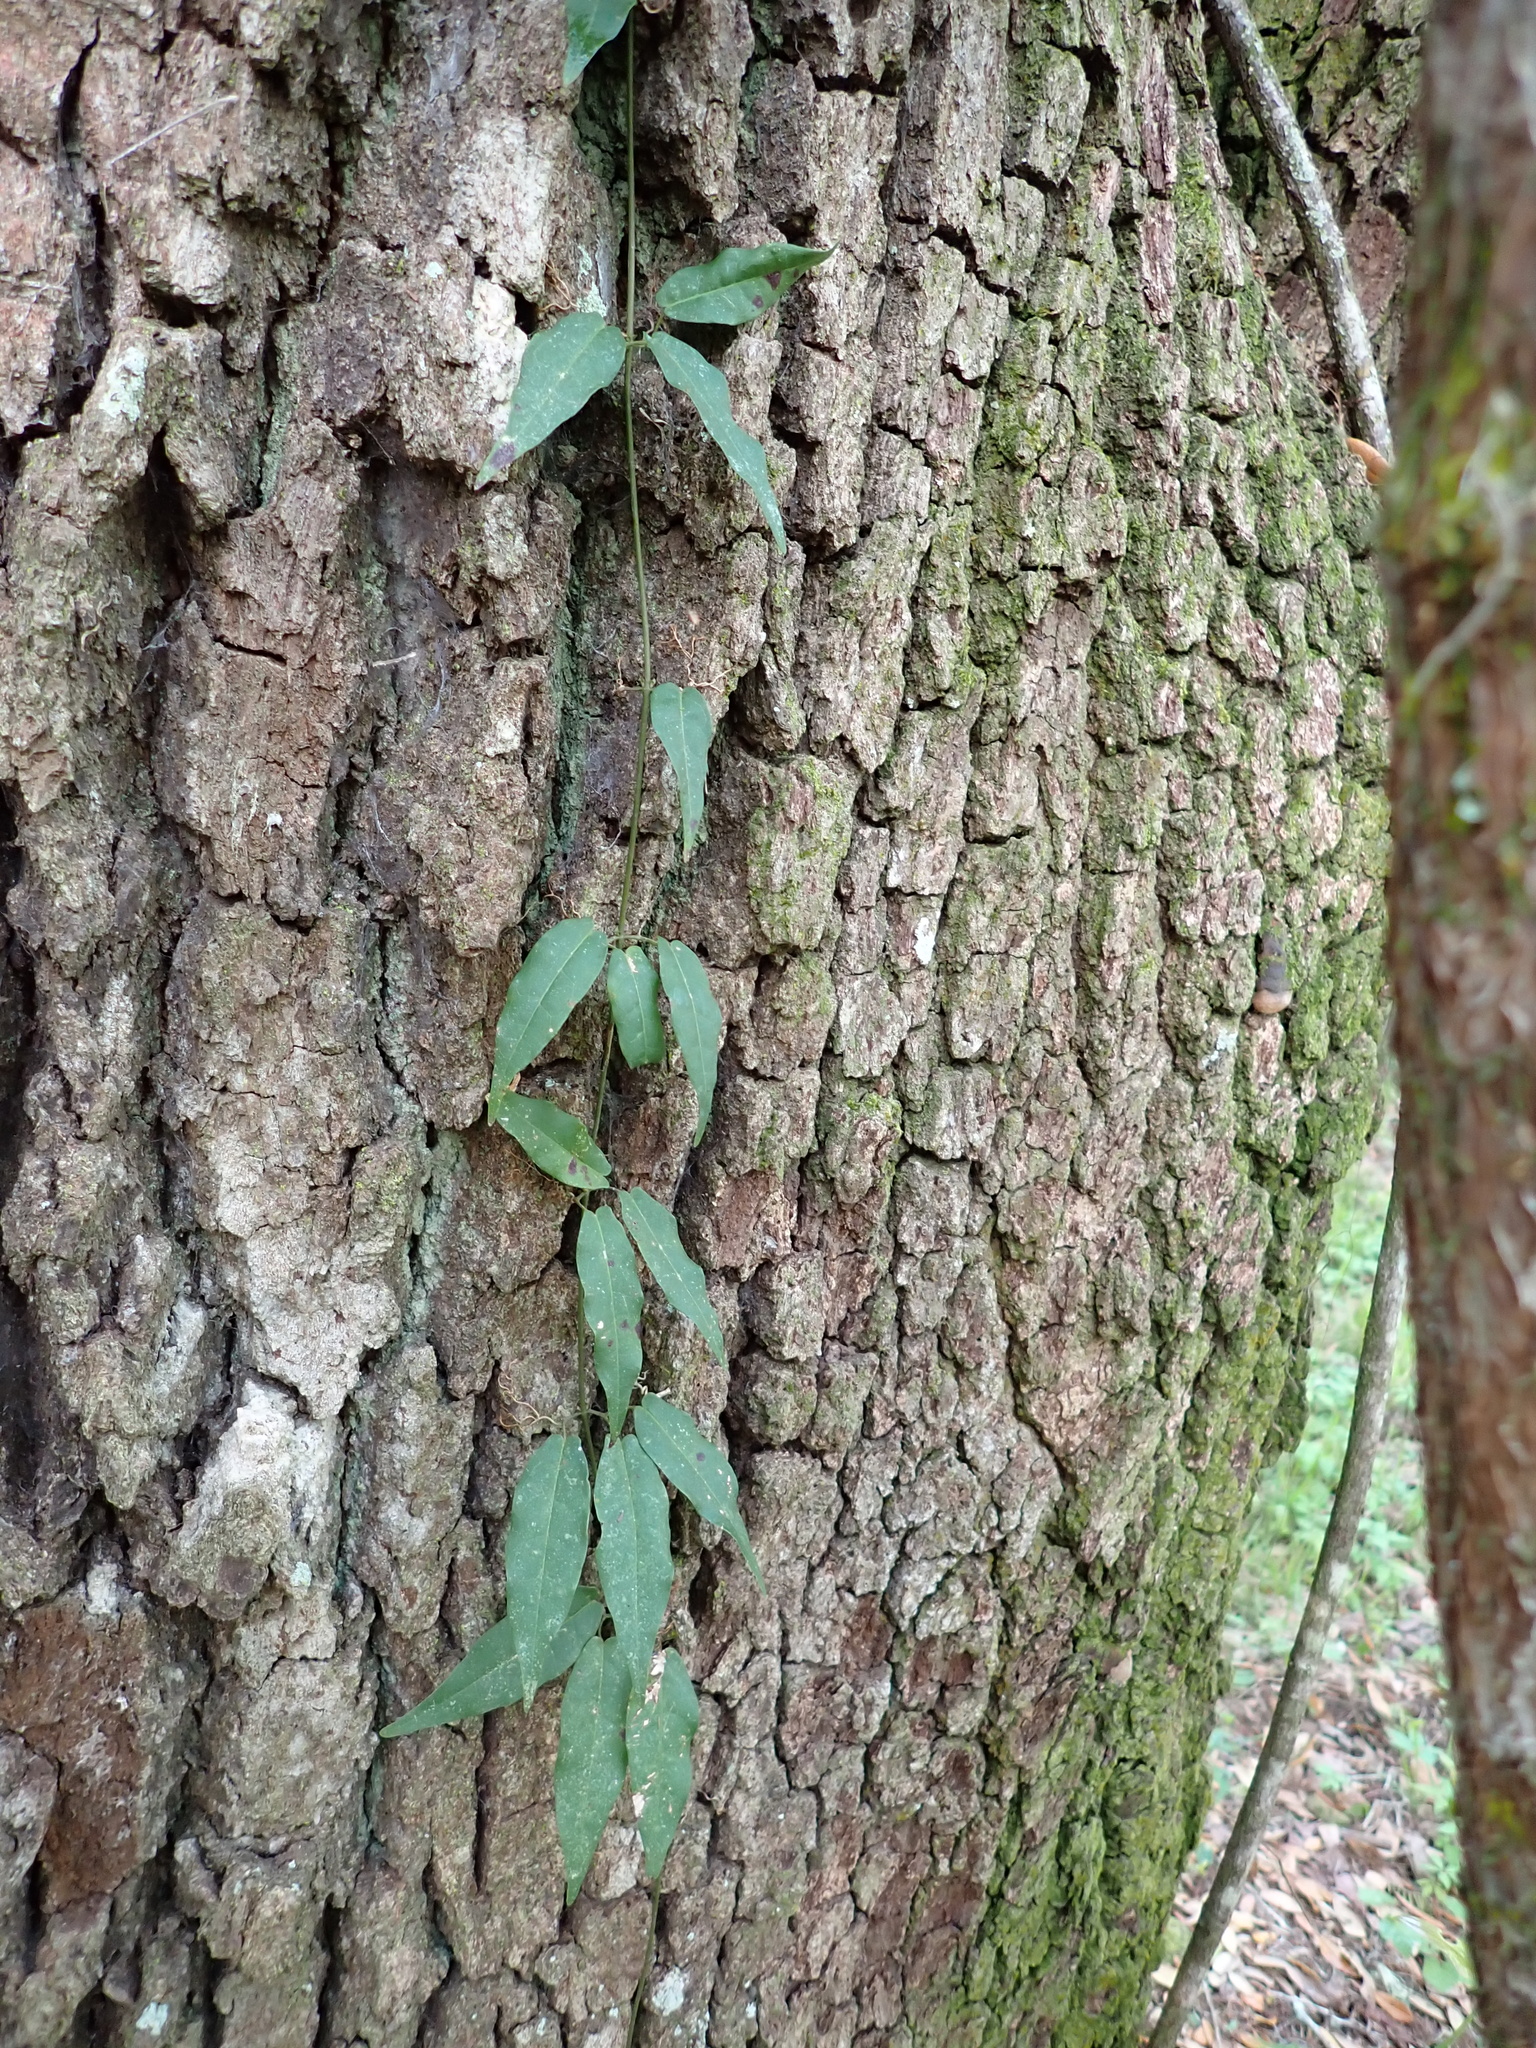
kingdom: Plantae
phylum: Tracheophyta
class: Magnoliopsida
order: Lamiales
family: Bignoniaceae
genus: Bignonia
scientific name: Bignonia capreolata
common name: Crossvine
